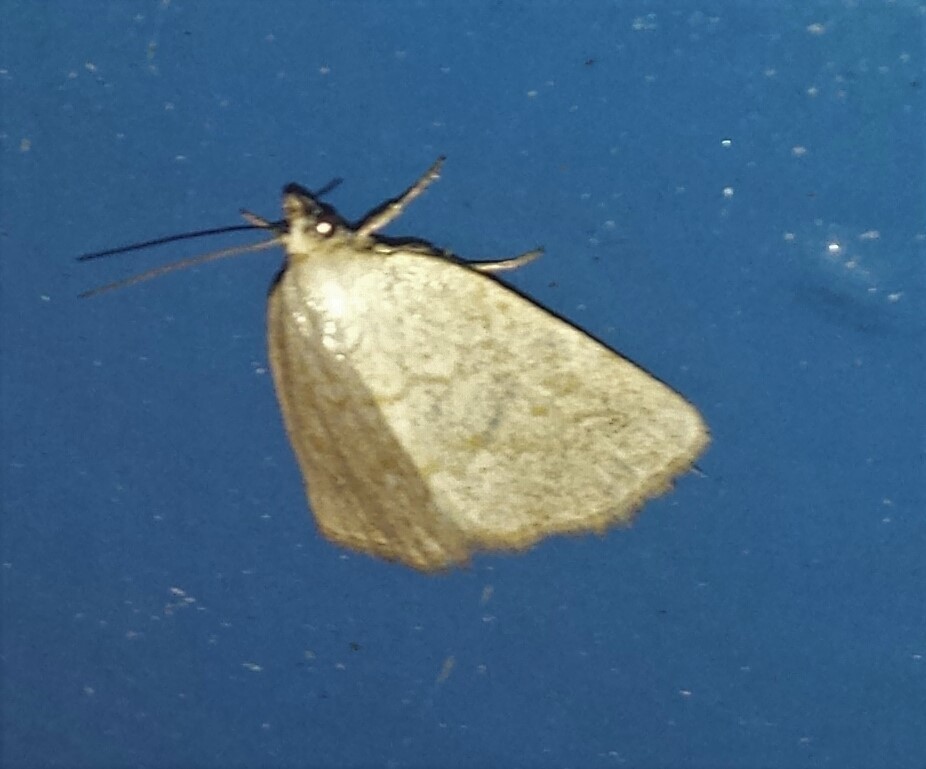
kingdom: Animalia
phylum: Arthropoda
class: Insecta
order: Lepidoptera
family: Noctuidae
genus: Protodeltote
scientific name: Protodeltote albidula
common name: Pale glyph
